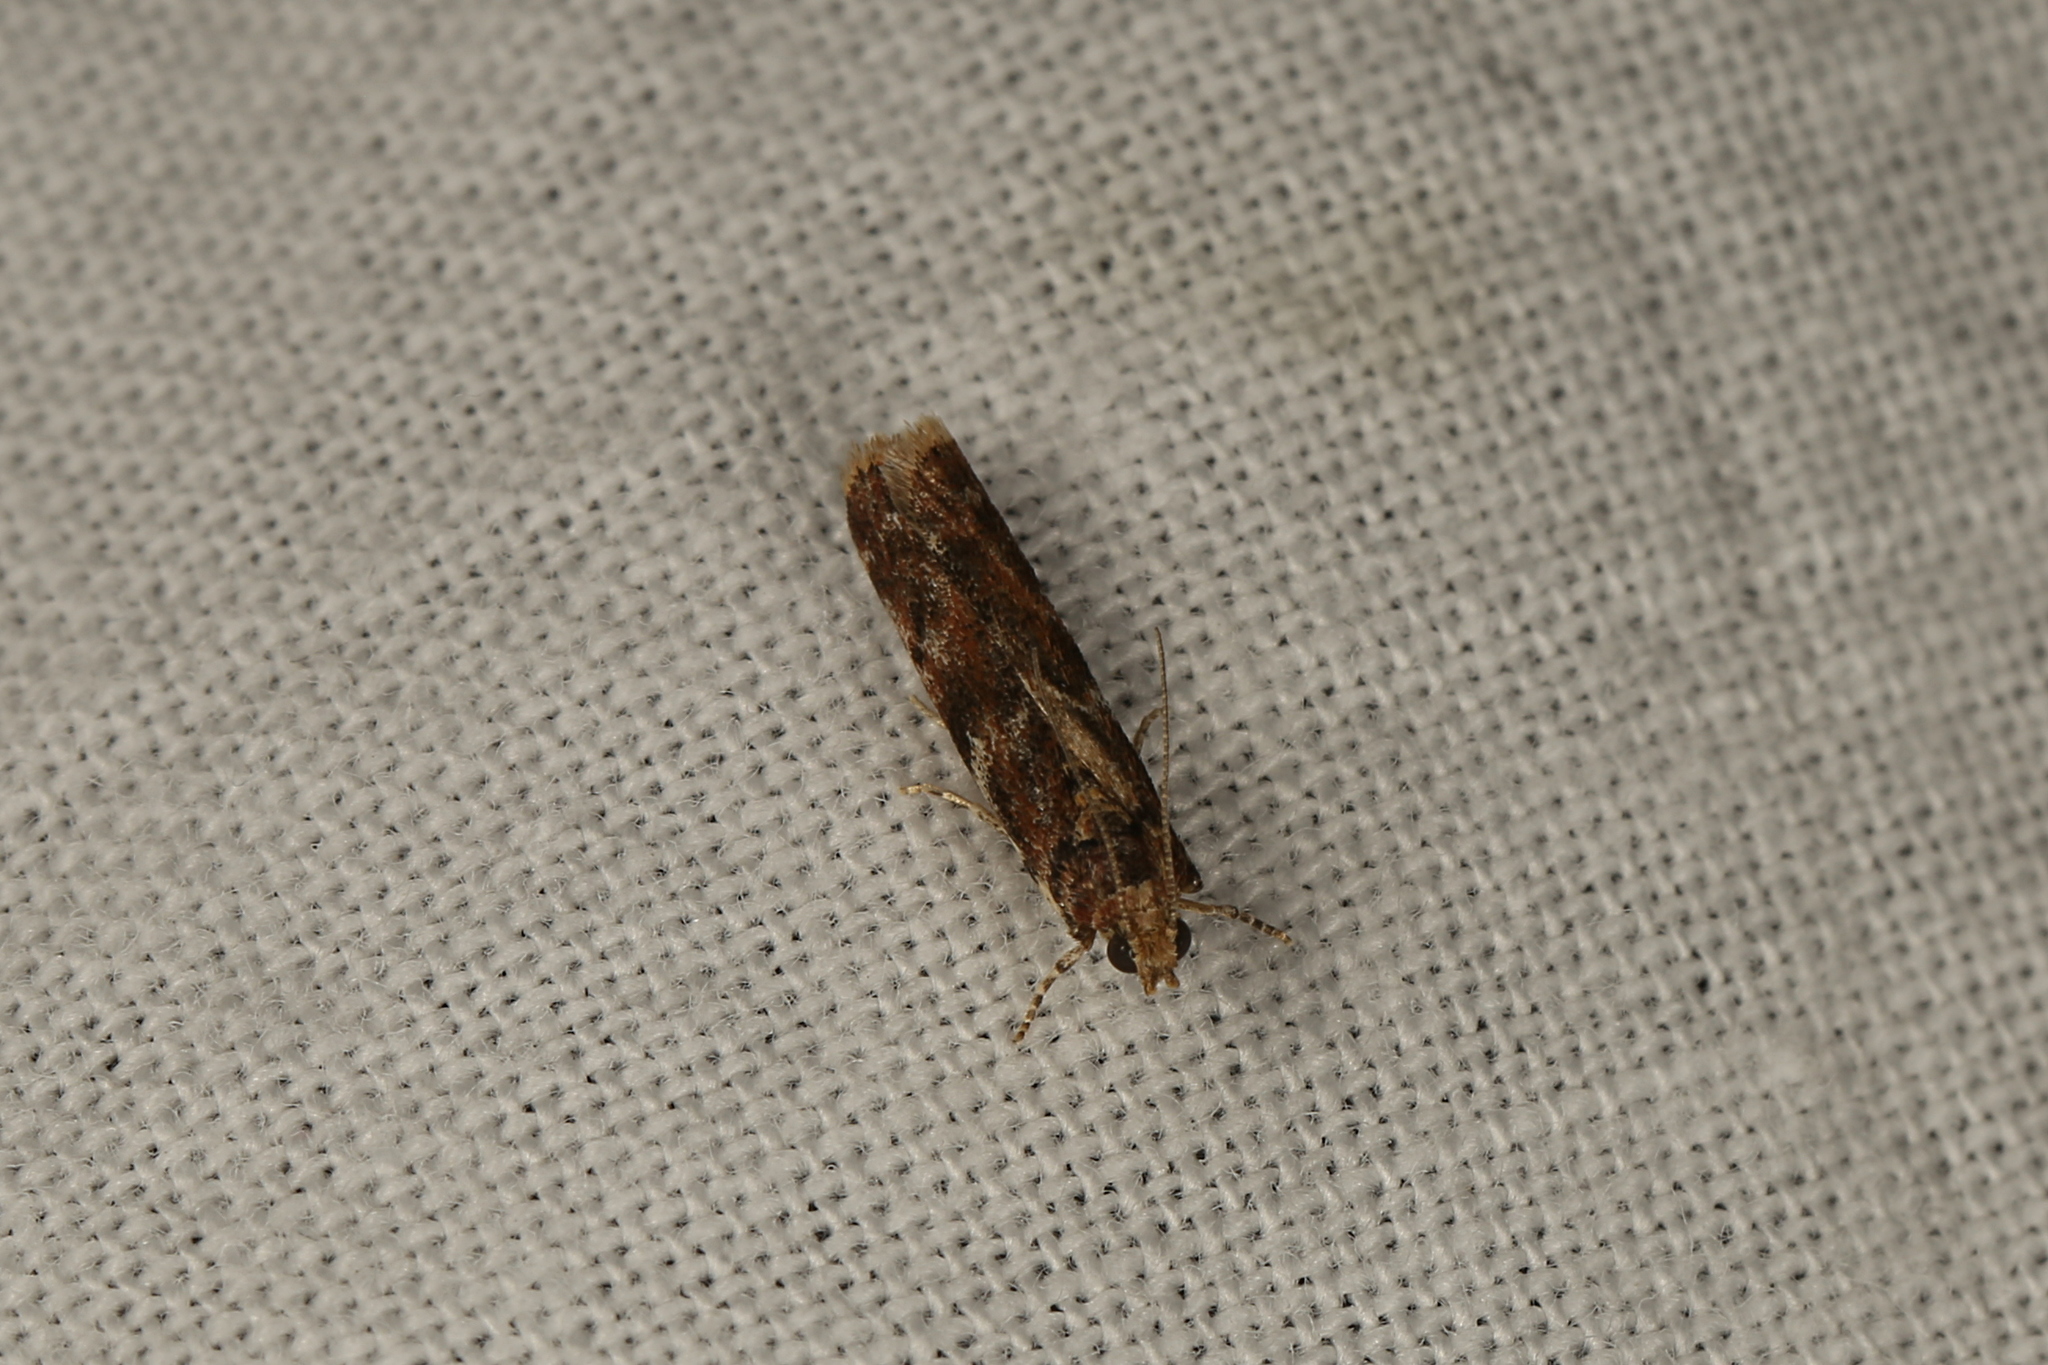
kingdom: Animalia
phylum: Arthropoda
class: Insecta
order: Lepidoptera
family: Pyralidae
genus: Ephestiopsis
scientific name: Ephestiopsis oenobarella
